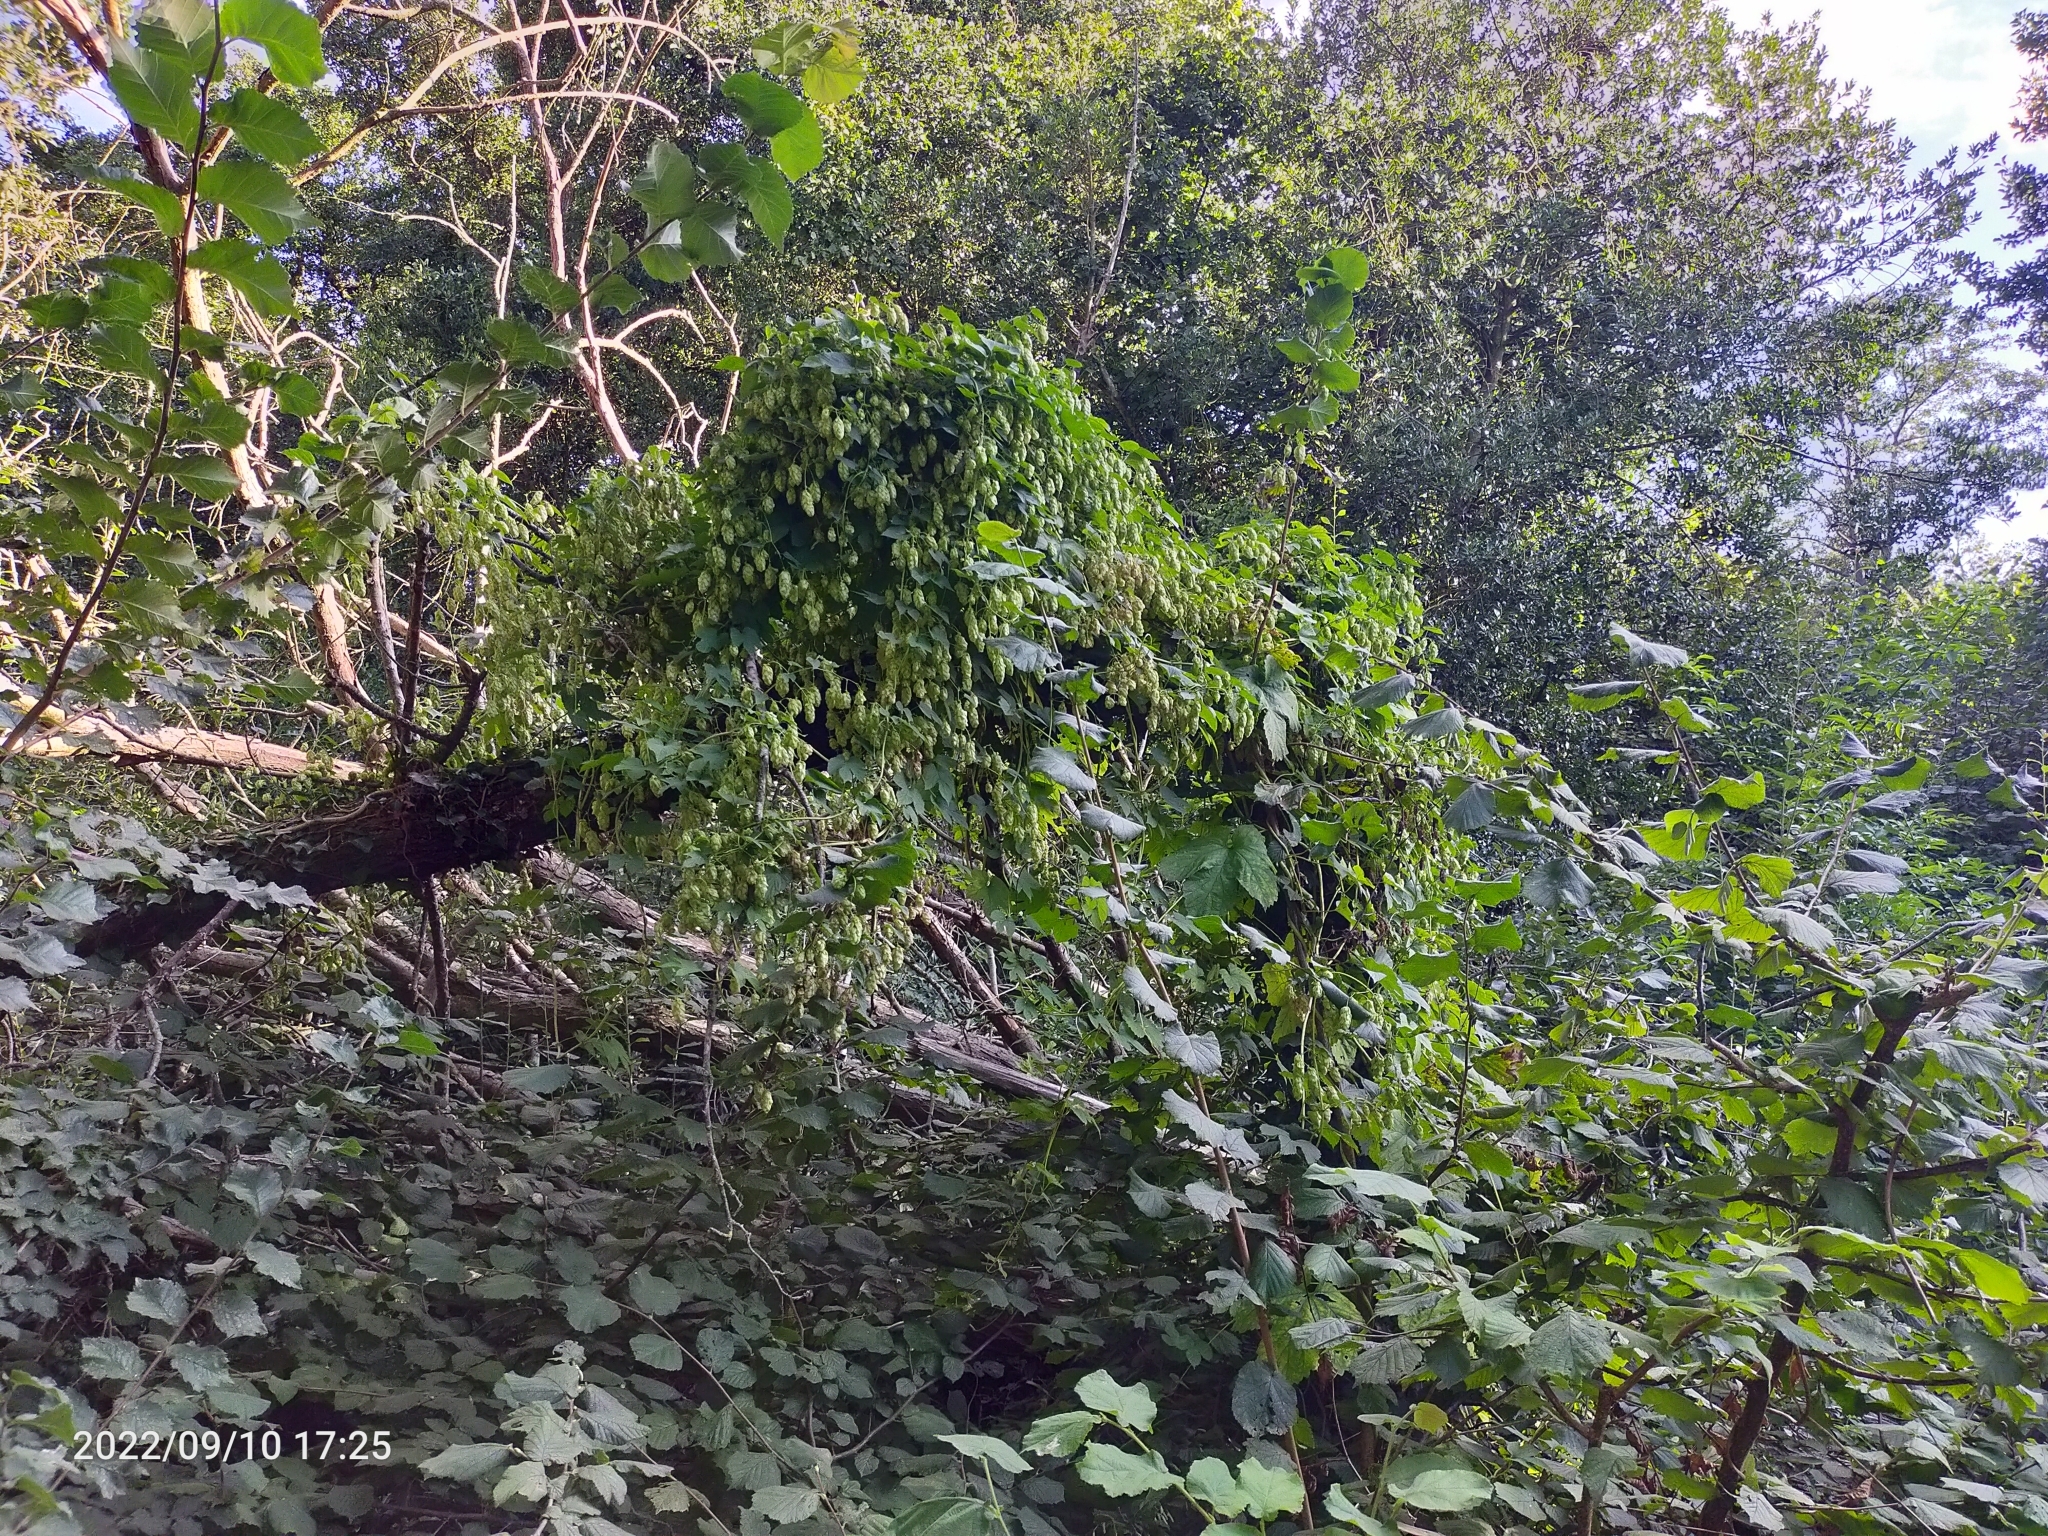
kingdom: Plantae
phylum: Tracheophyta
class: Magnoliopsida
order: Rosales
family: Cannabaceae
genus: Humulus
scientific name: Humulus lupulus
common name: Hop
